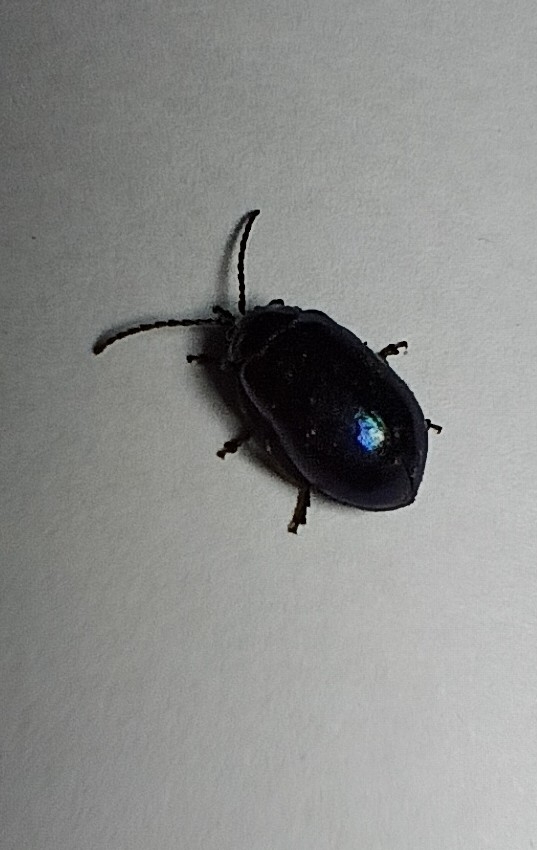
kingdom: Animalia
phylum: Arthropoda
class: Insecta
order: Coleoptera
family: Chrysomelidae
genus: Agelastica
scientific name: Agelastica alni
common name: Alder leaf beetle
